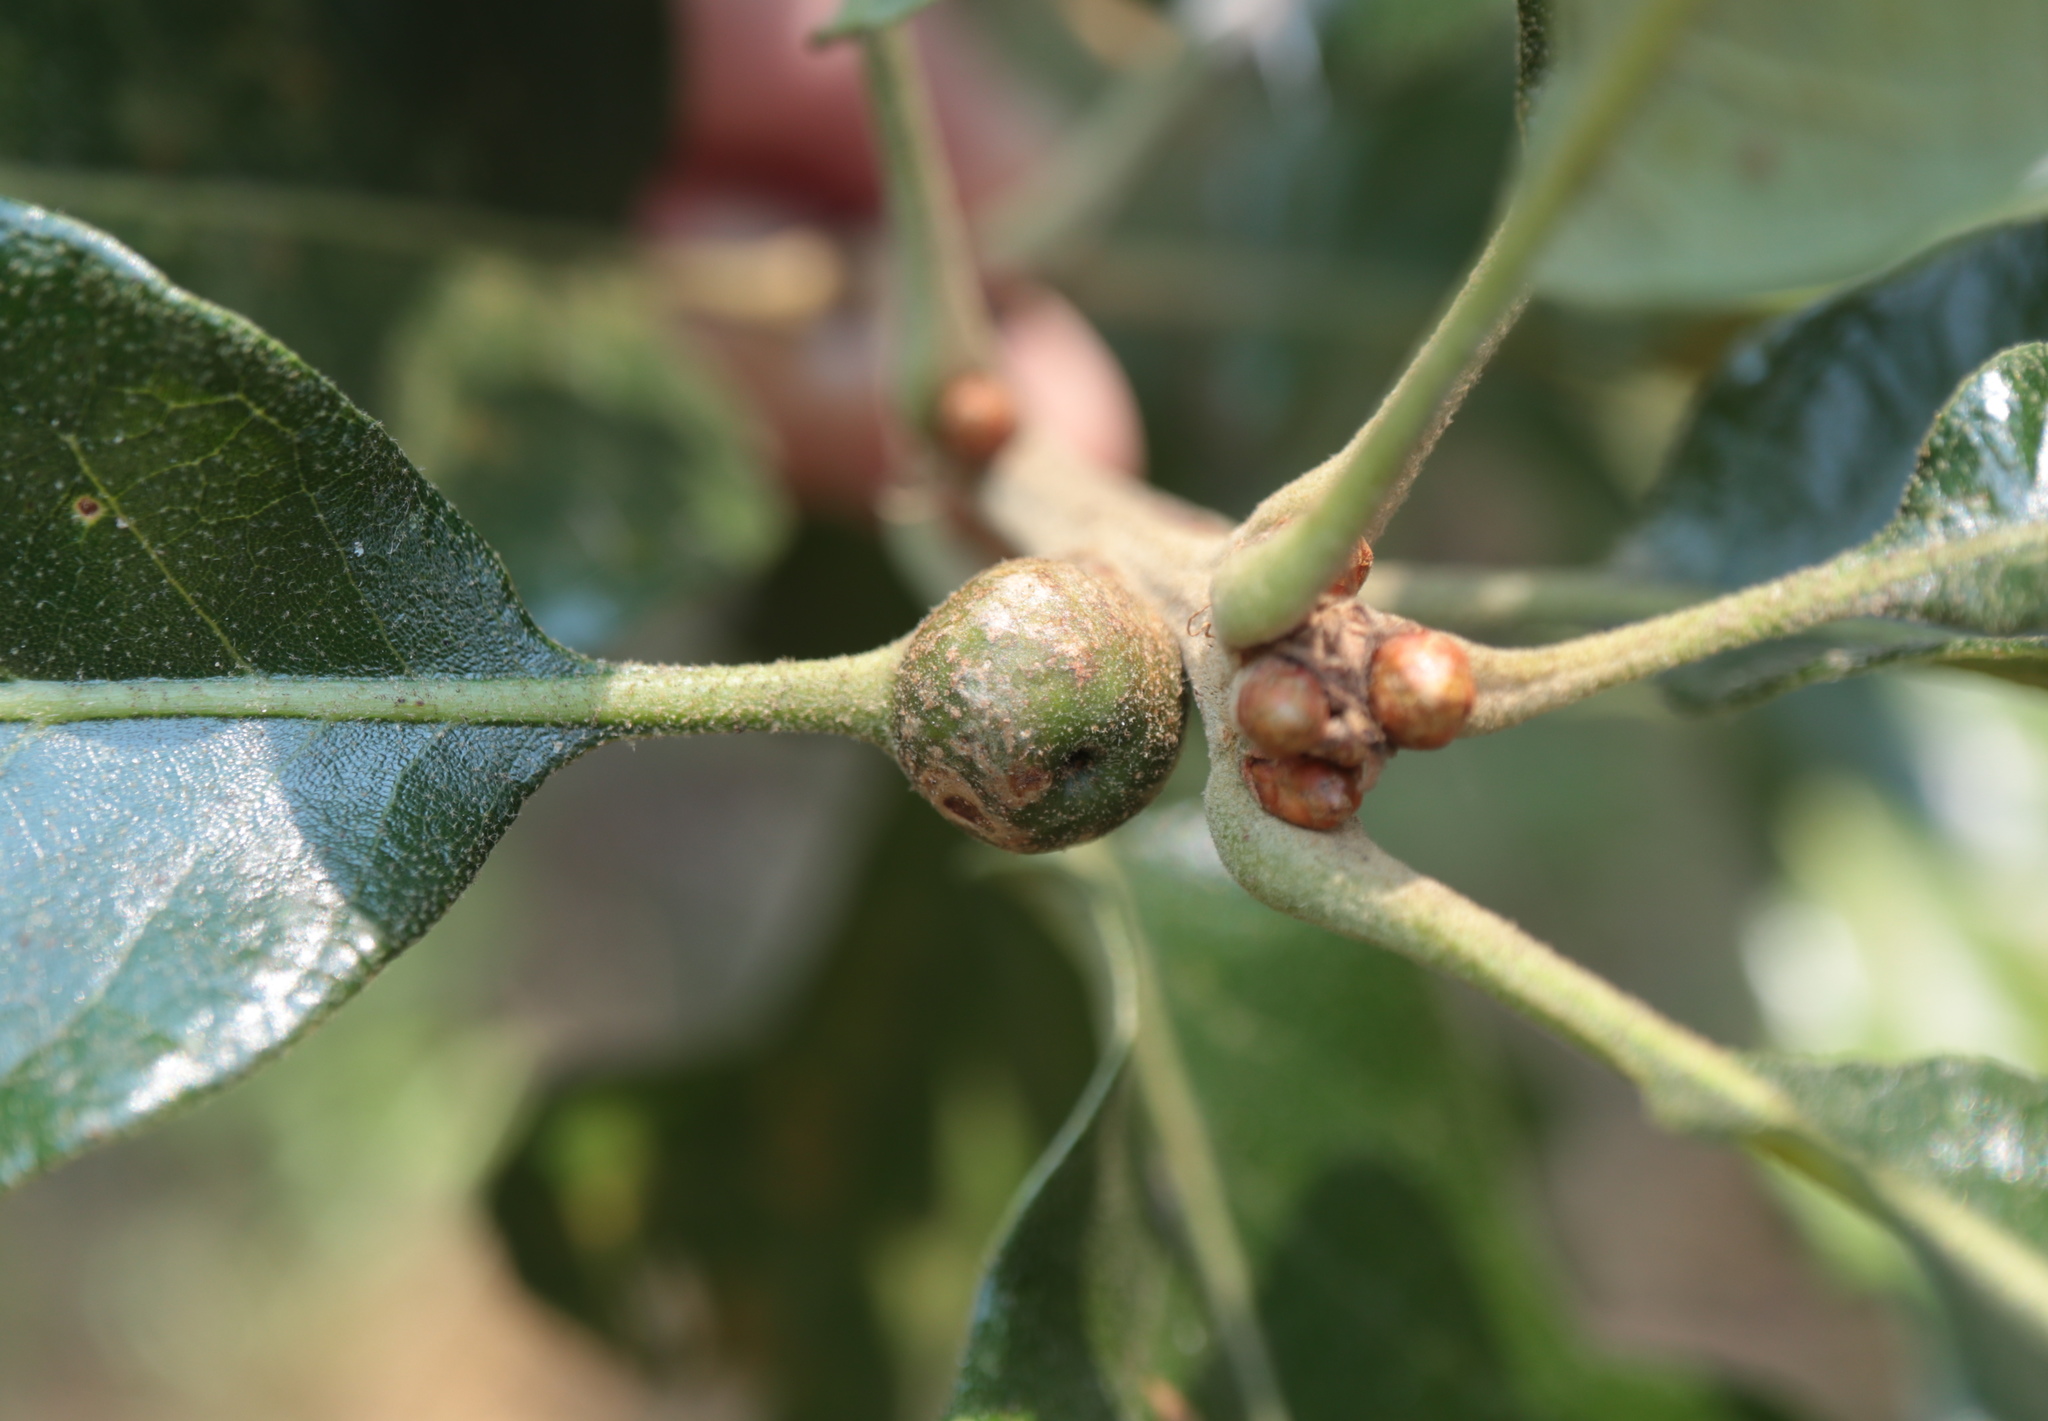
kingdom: Animalia
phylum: Arthropoda
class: Insecta
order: Hymenoptera
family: Cynipidae
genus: Andricus
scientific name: Andricus
